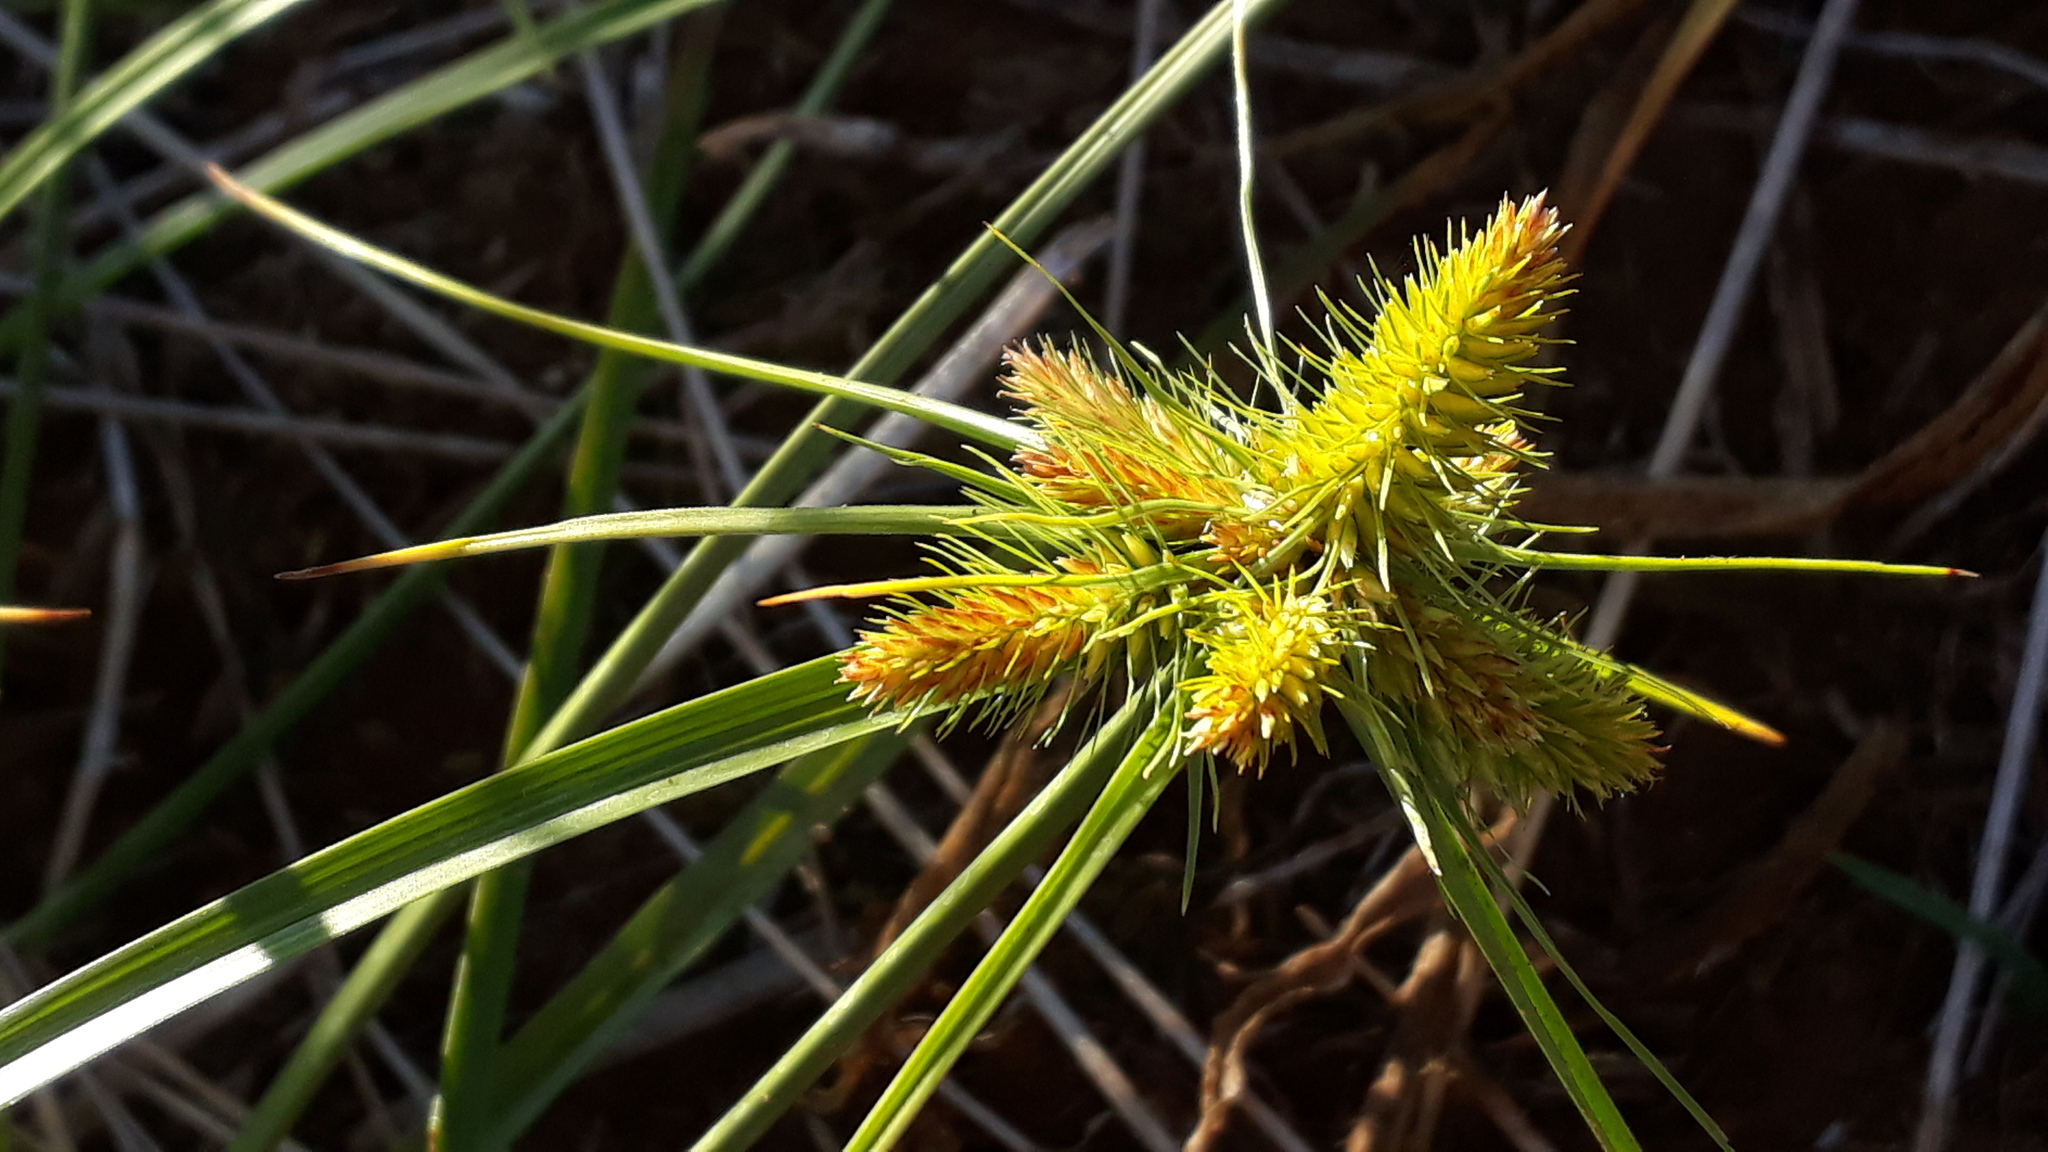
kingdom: Plantae
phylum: Tracheophyta
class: Liliopsida
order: Poales
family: Cyperaceae
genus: Cyperus
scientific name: Cyperus aggregatus
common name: Inflatedscale flatsedge
